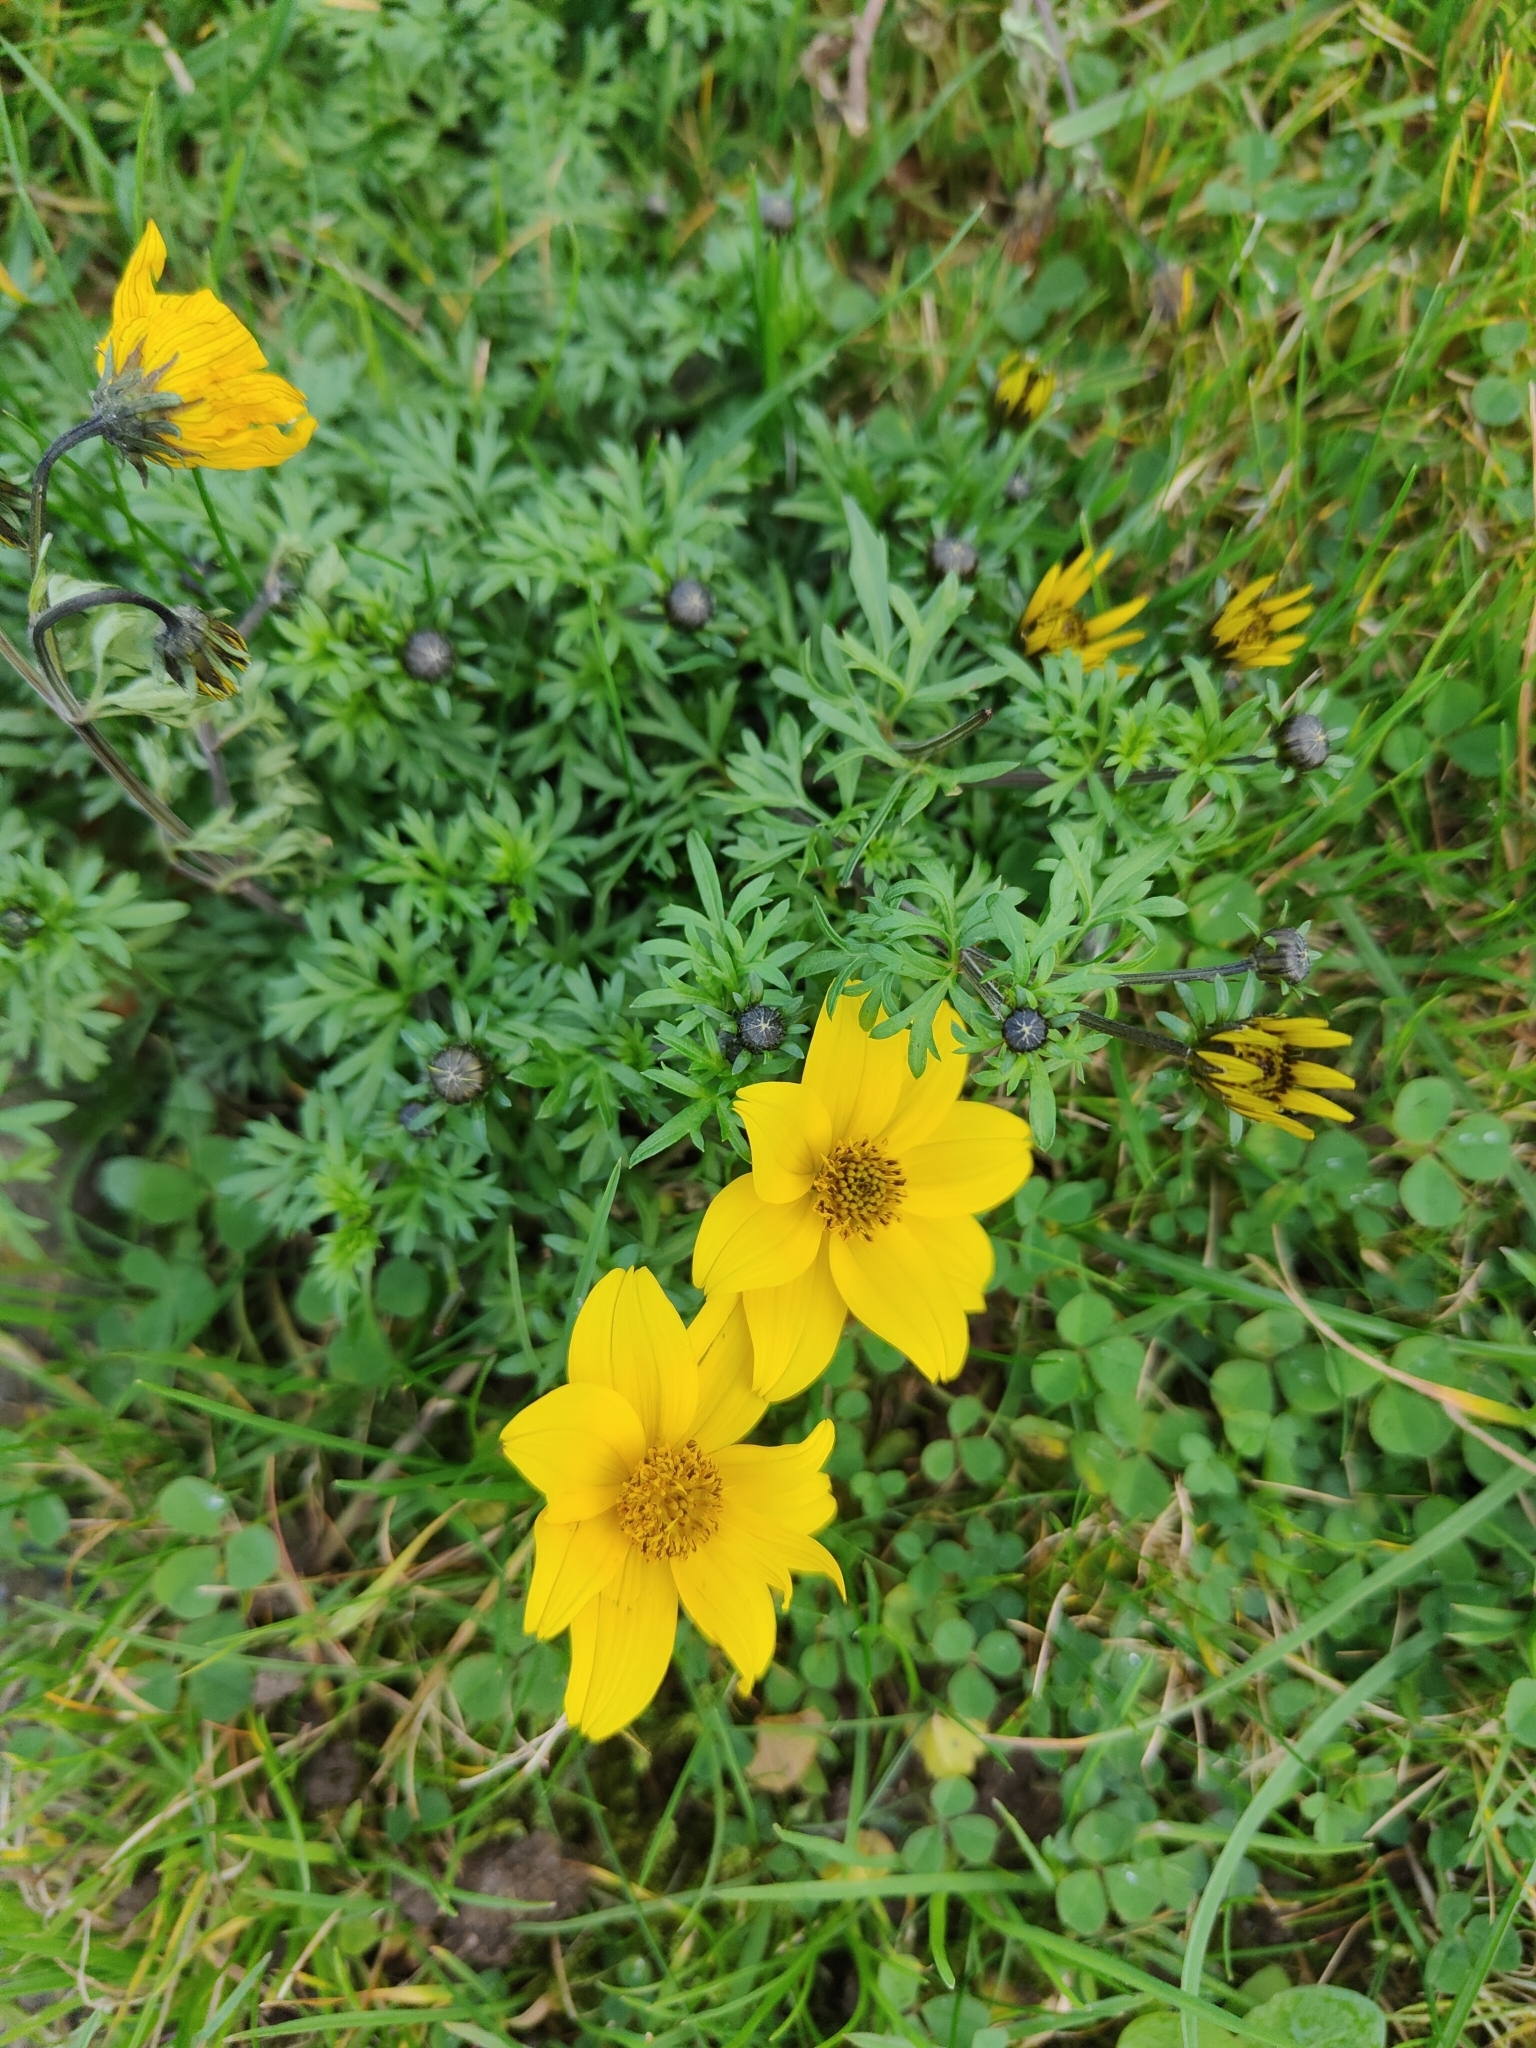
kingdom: Plantae
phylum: Tracheophyta
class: Magnoliopsida
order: Asterales
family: Asteraceae
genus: Bidens
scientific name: Bidens aurea
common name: Arizona beggar-ticks
